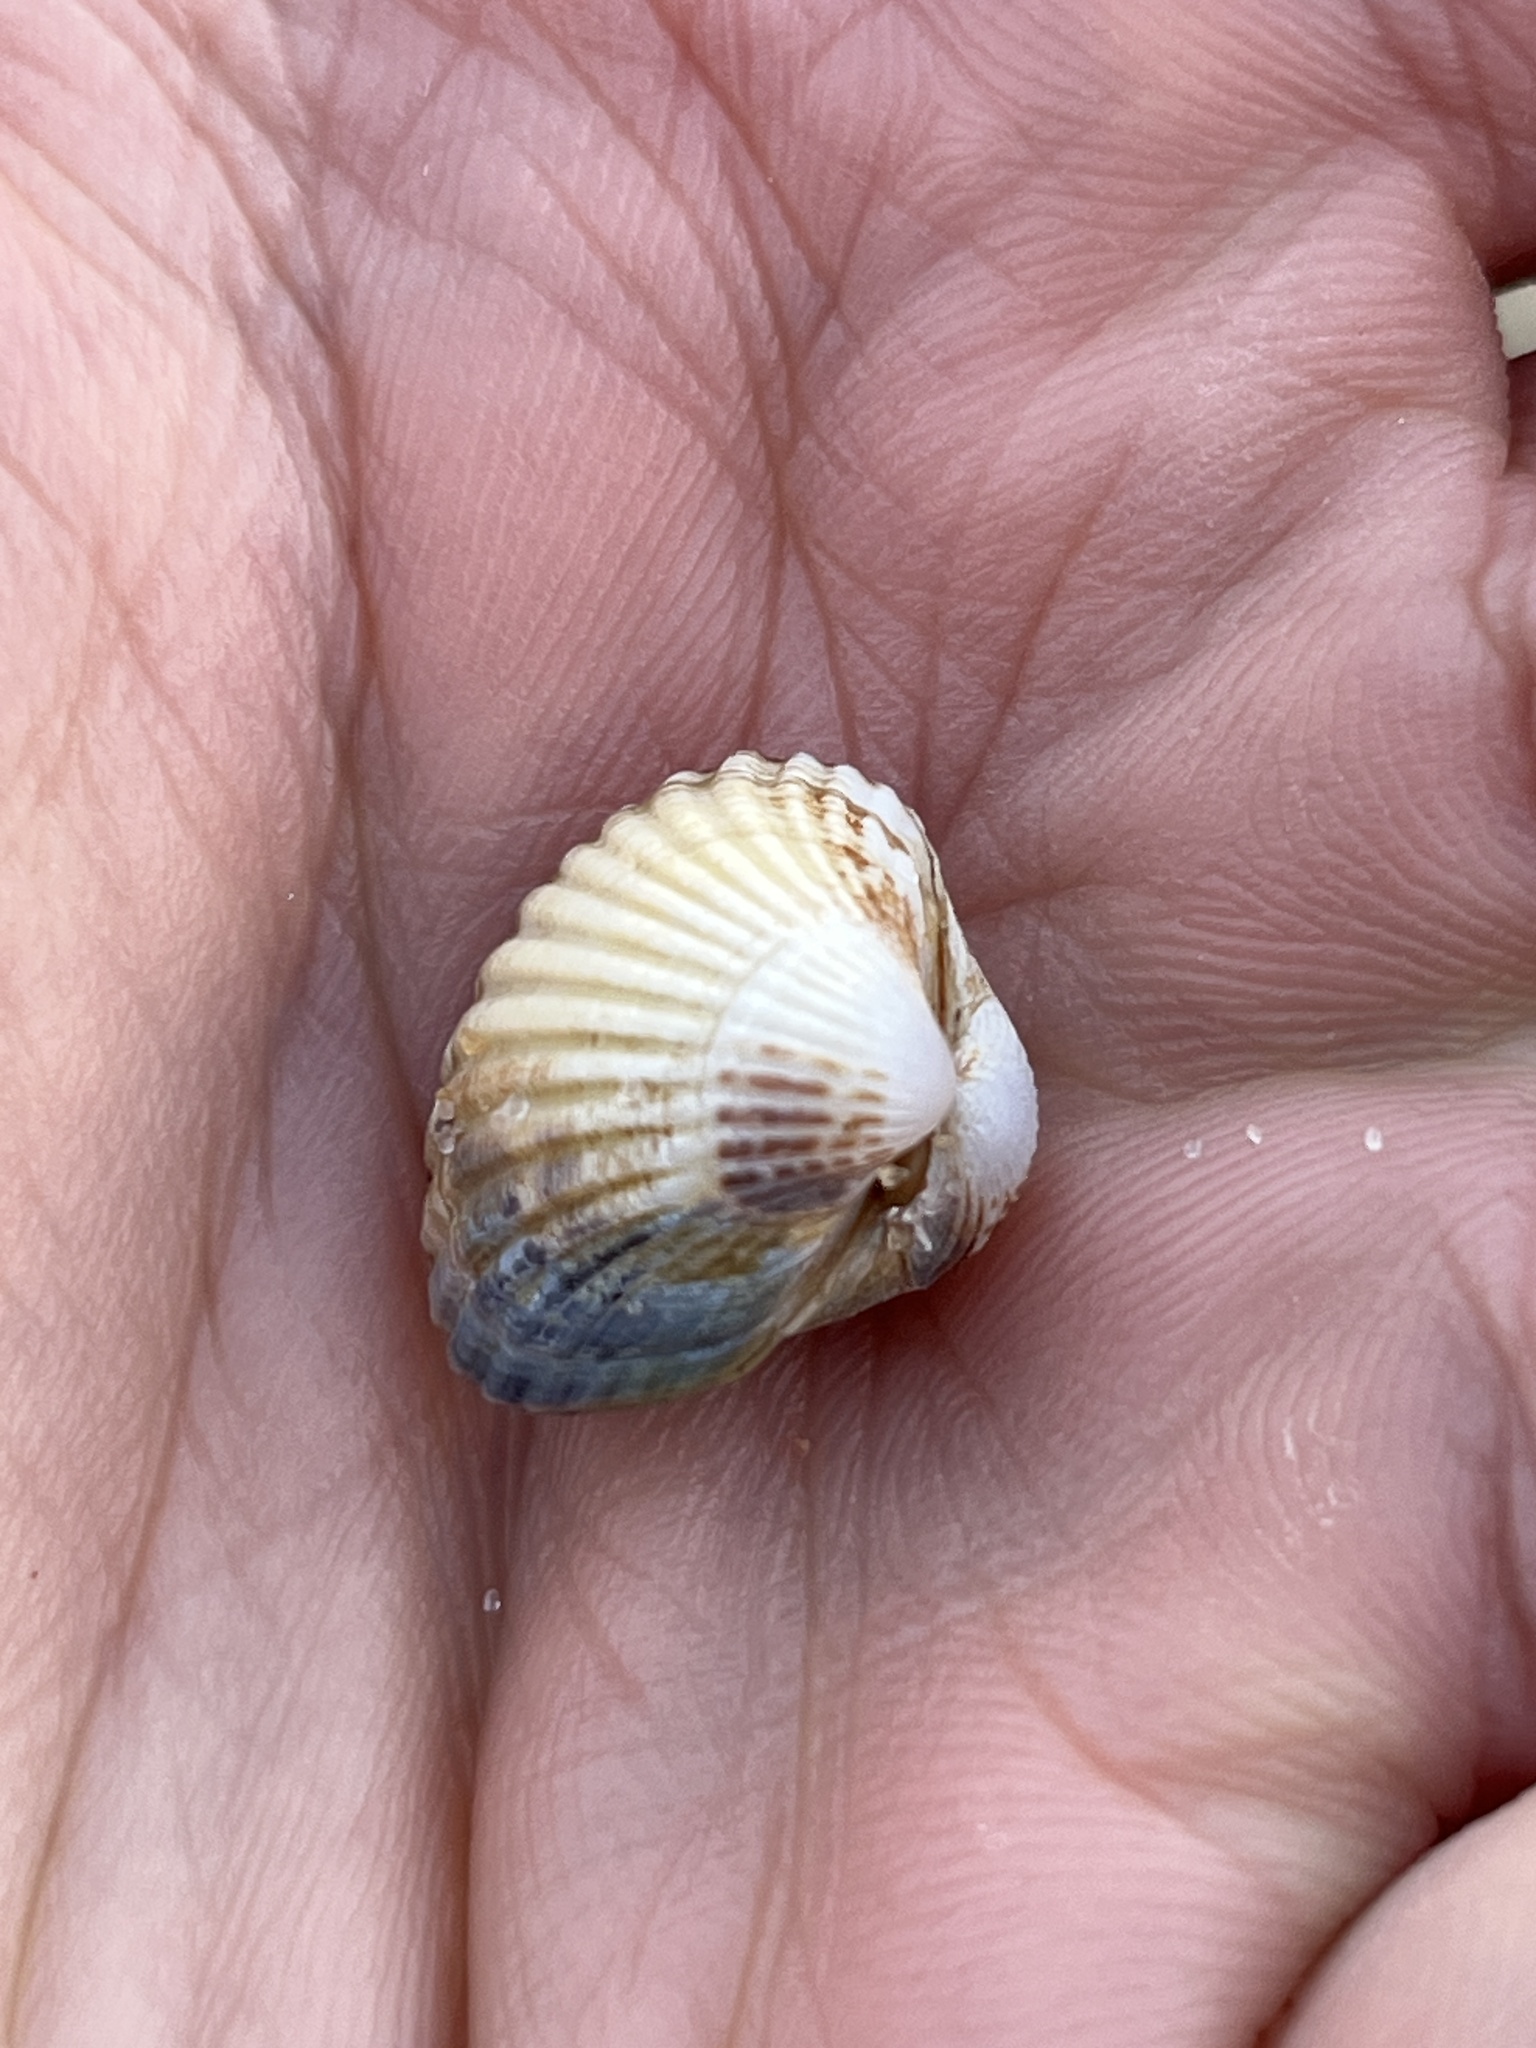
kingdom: Animalia
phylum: Mollusca
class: Bivalvia
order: Cardiida
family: Cardiidae
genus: Cerastoderma
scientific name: Cerastoderma glaucum
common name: Lagoon cockle
